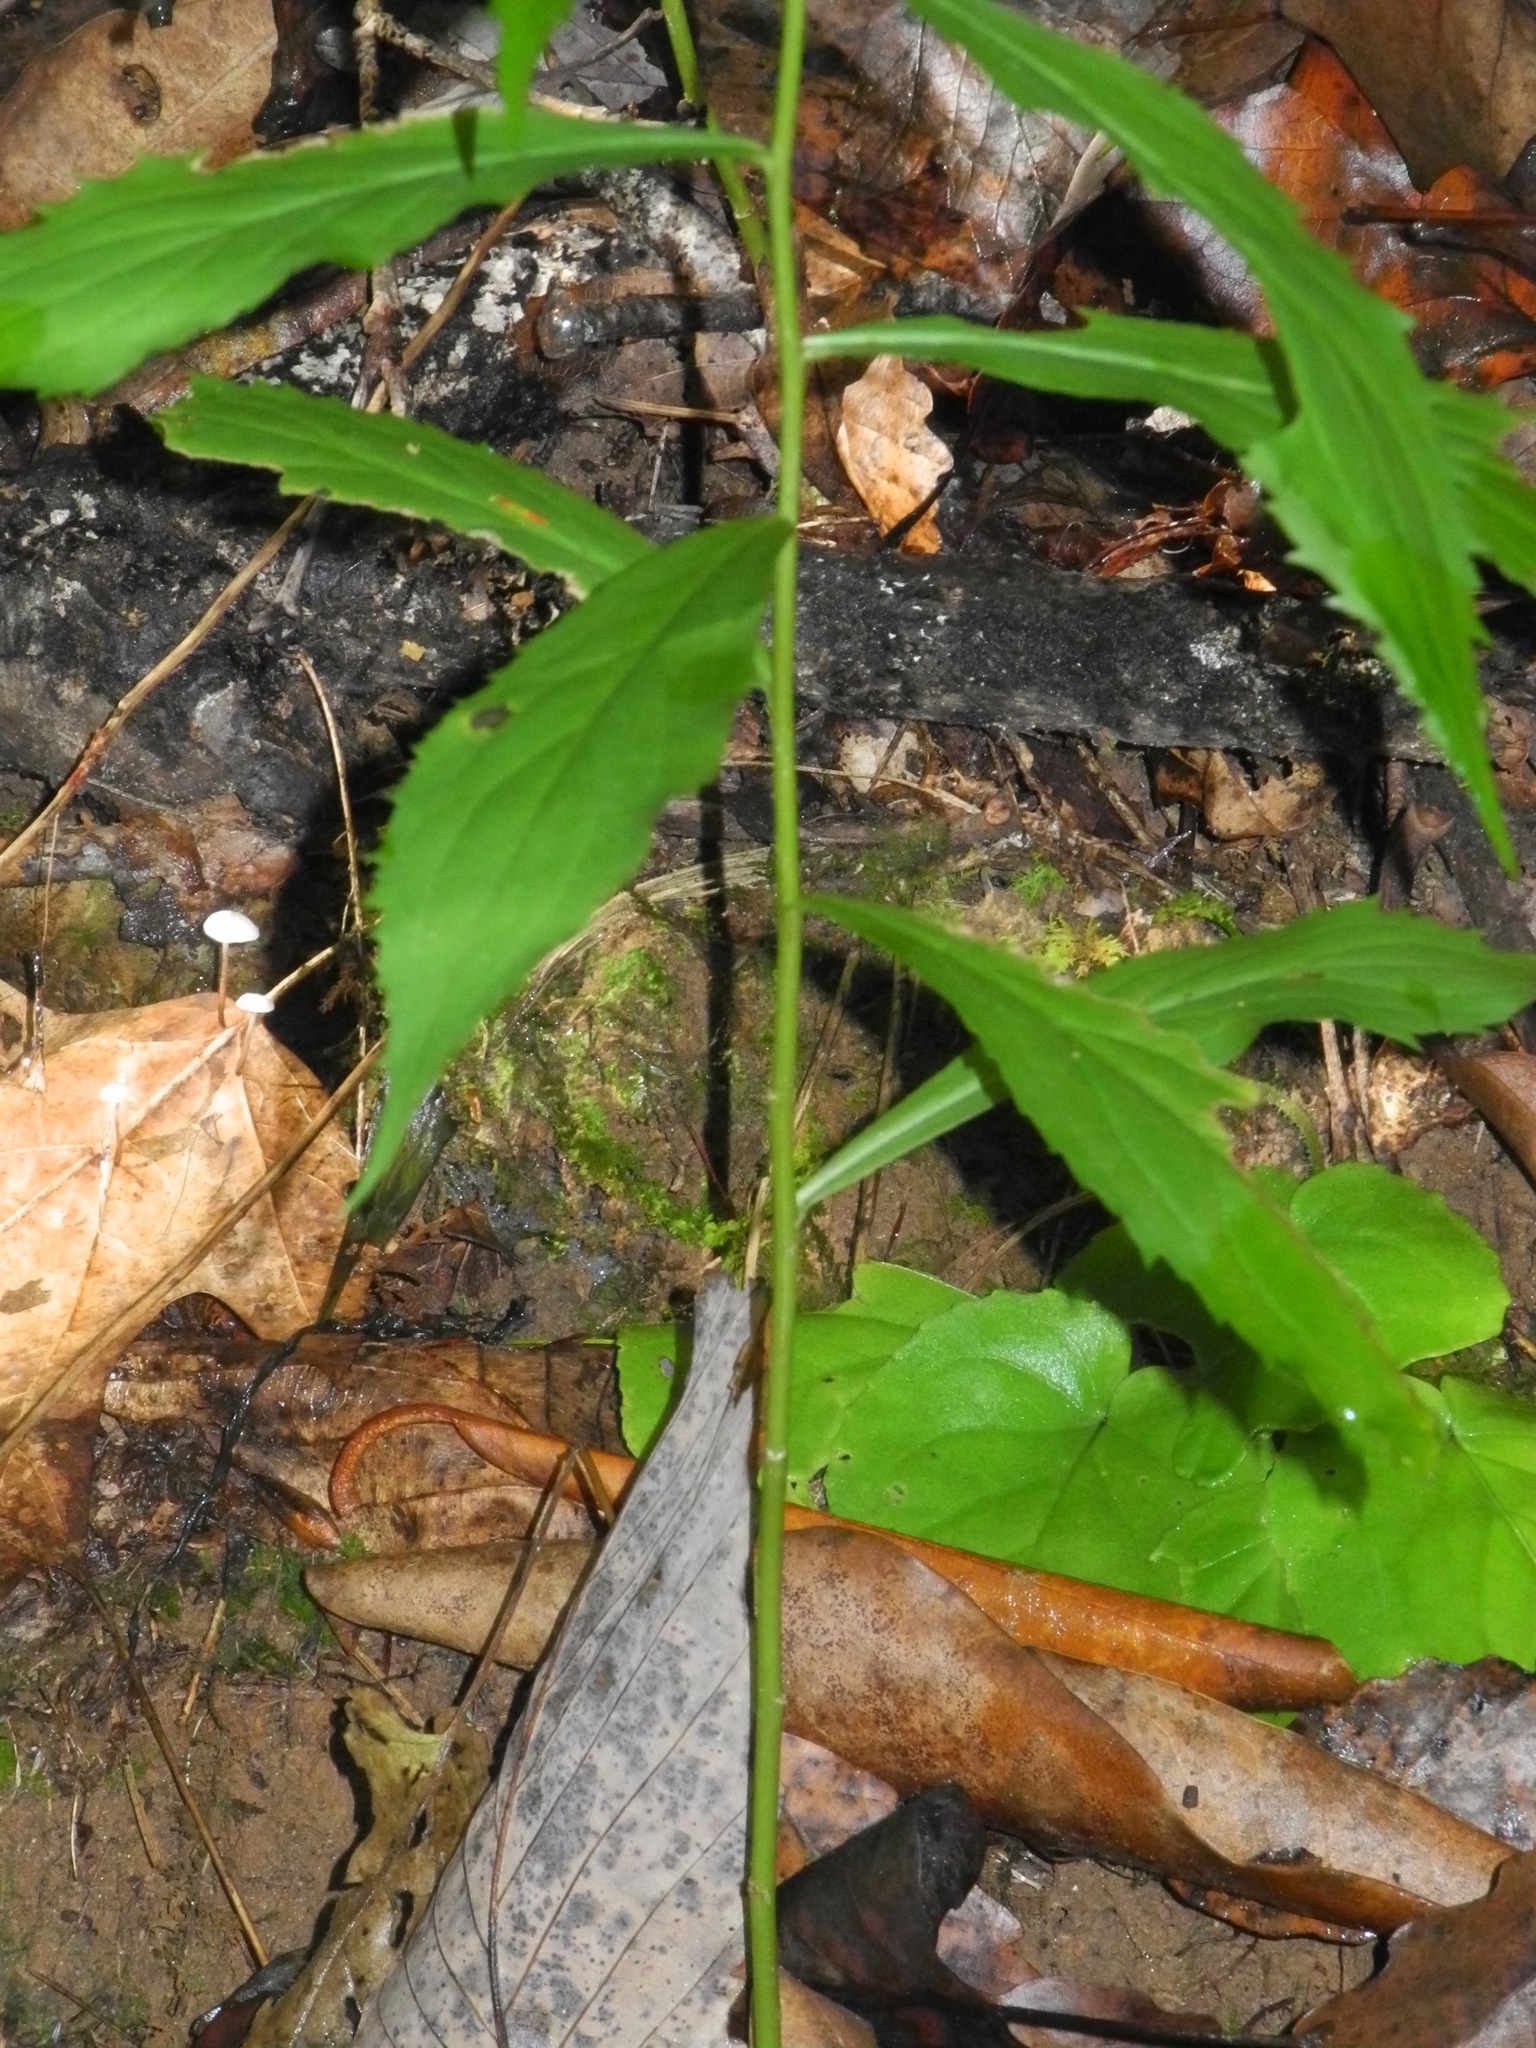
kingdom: Plantae
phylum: Tracheophyta
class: Magnoliopsida
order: Asterales
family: Asteraceae
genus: Solidago
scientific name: Solidago curtisii
